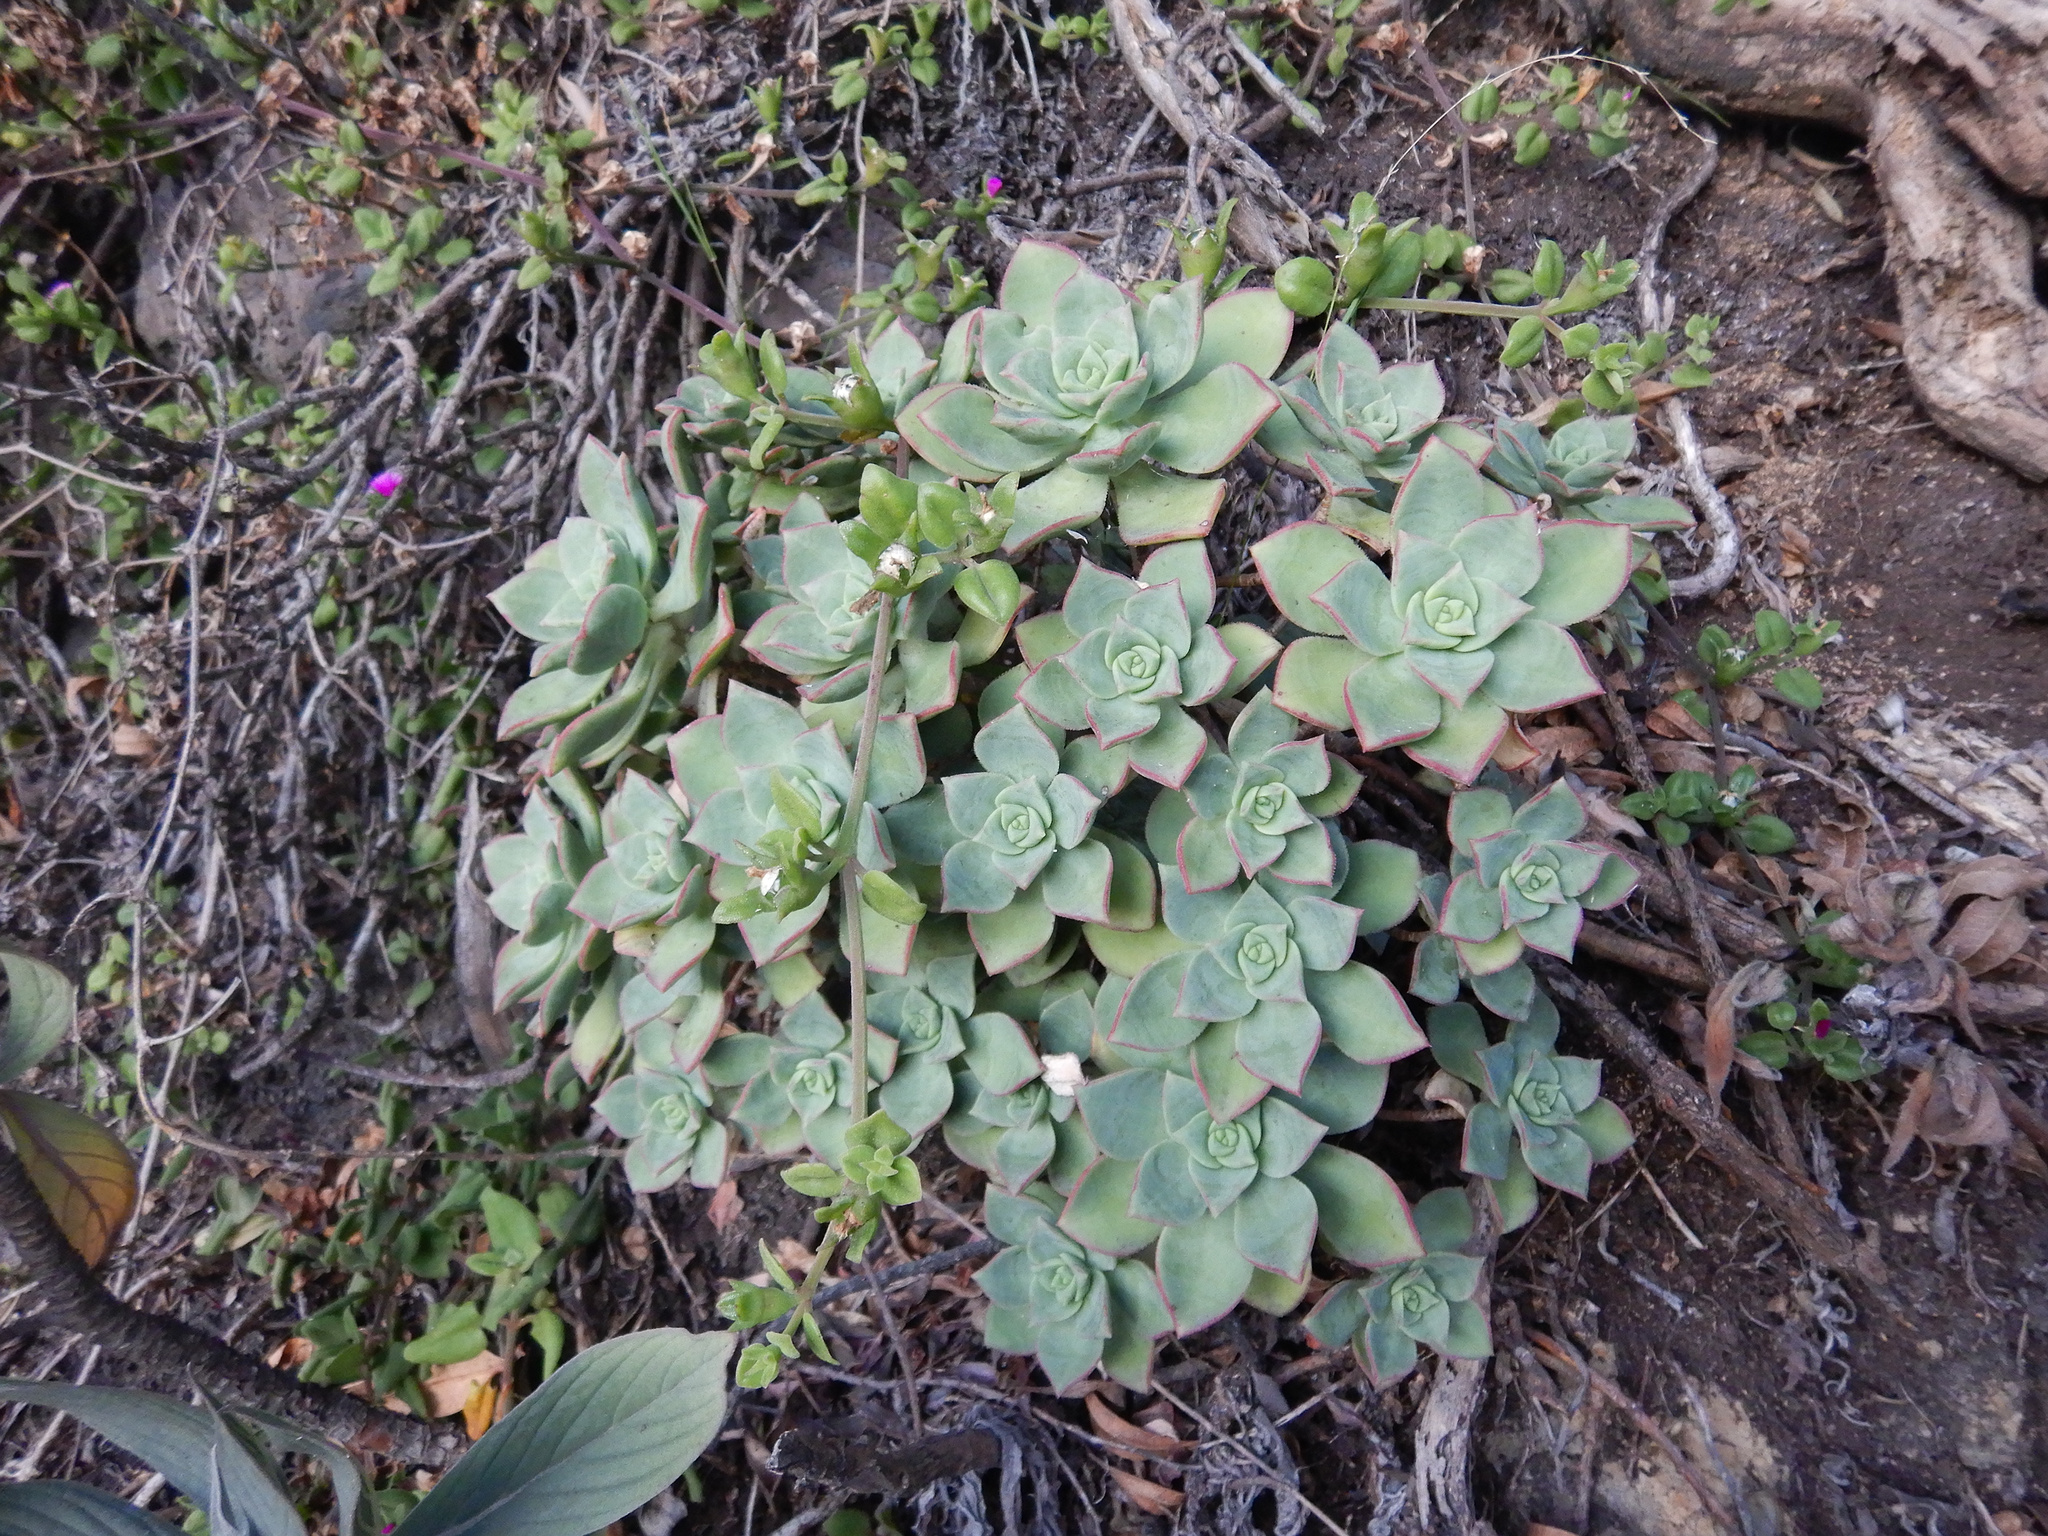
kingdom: Plantae
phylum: Tracheophyta
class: Magnoliopsida
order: Saxifragales
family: Crassulaceae
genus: Aeonium
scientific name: Aeonium haworthii
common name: Haworth's aeonium
